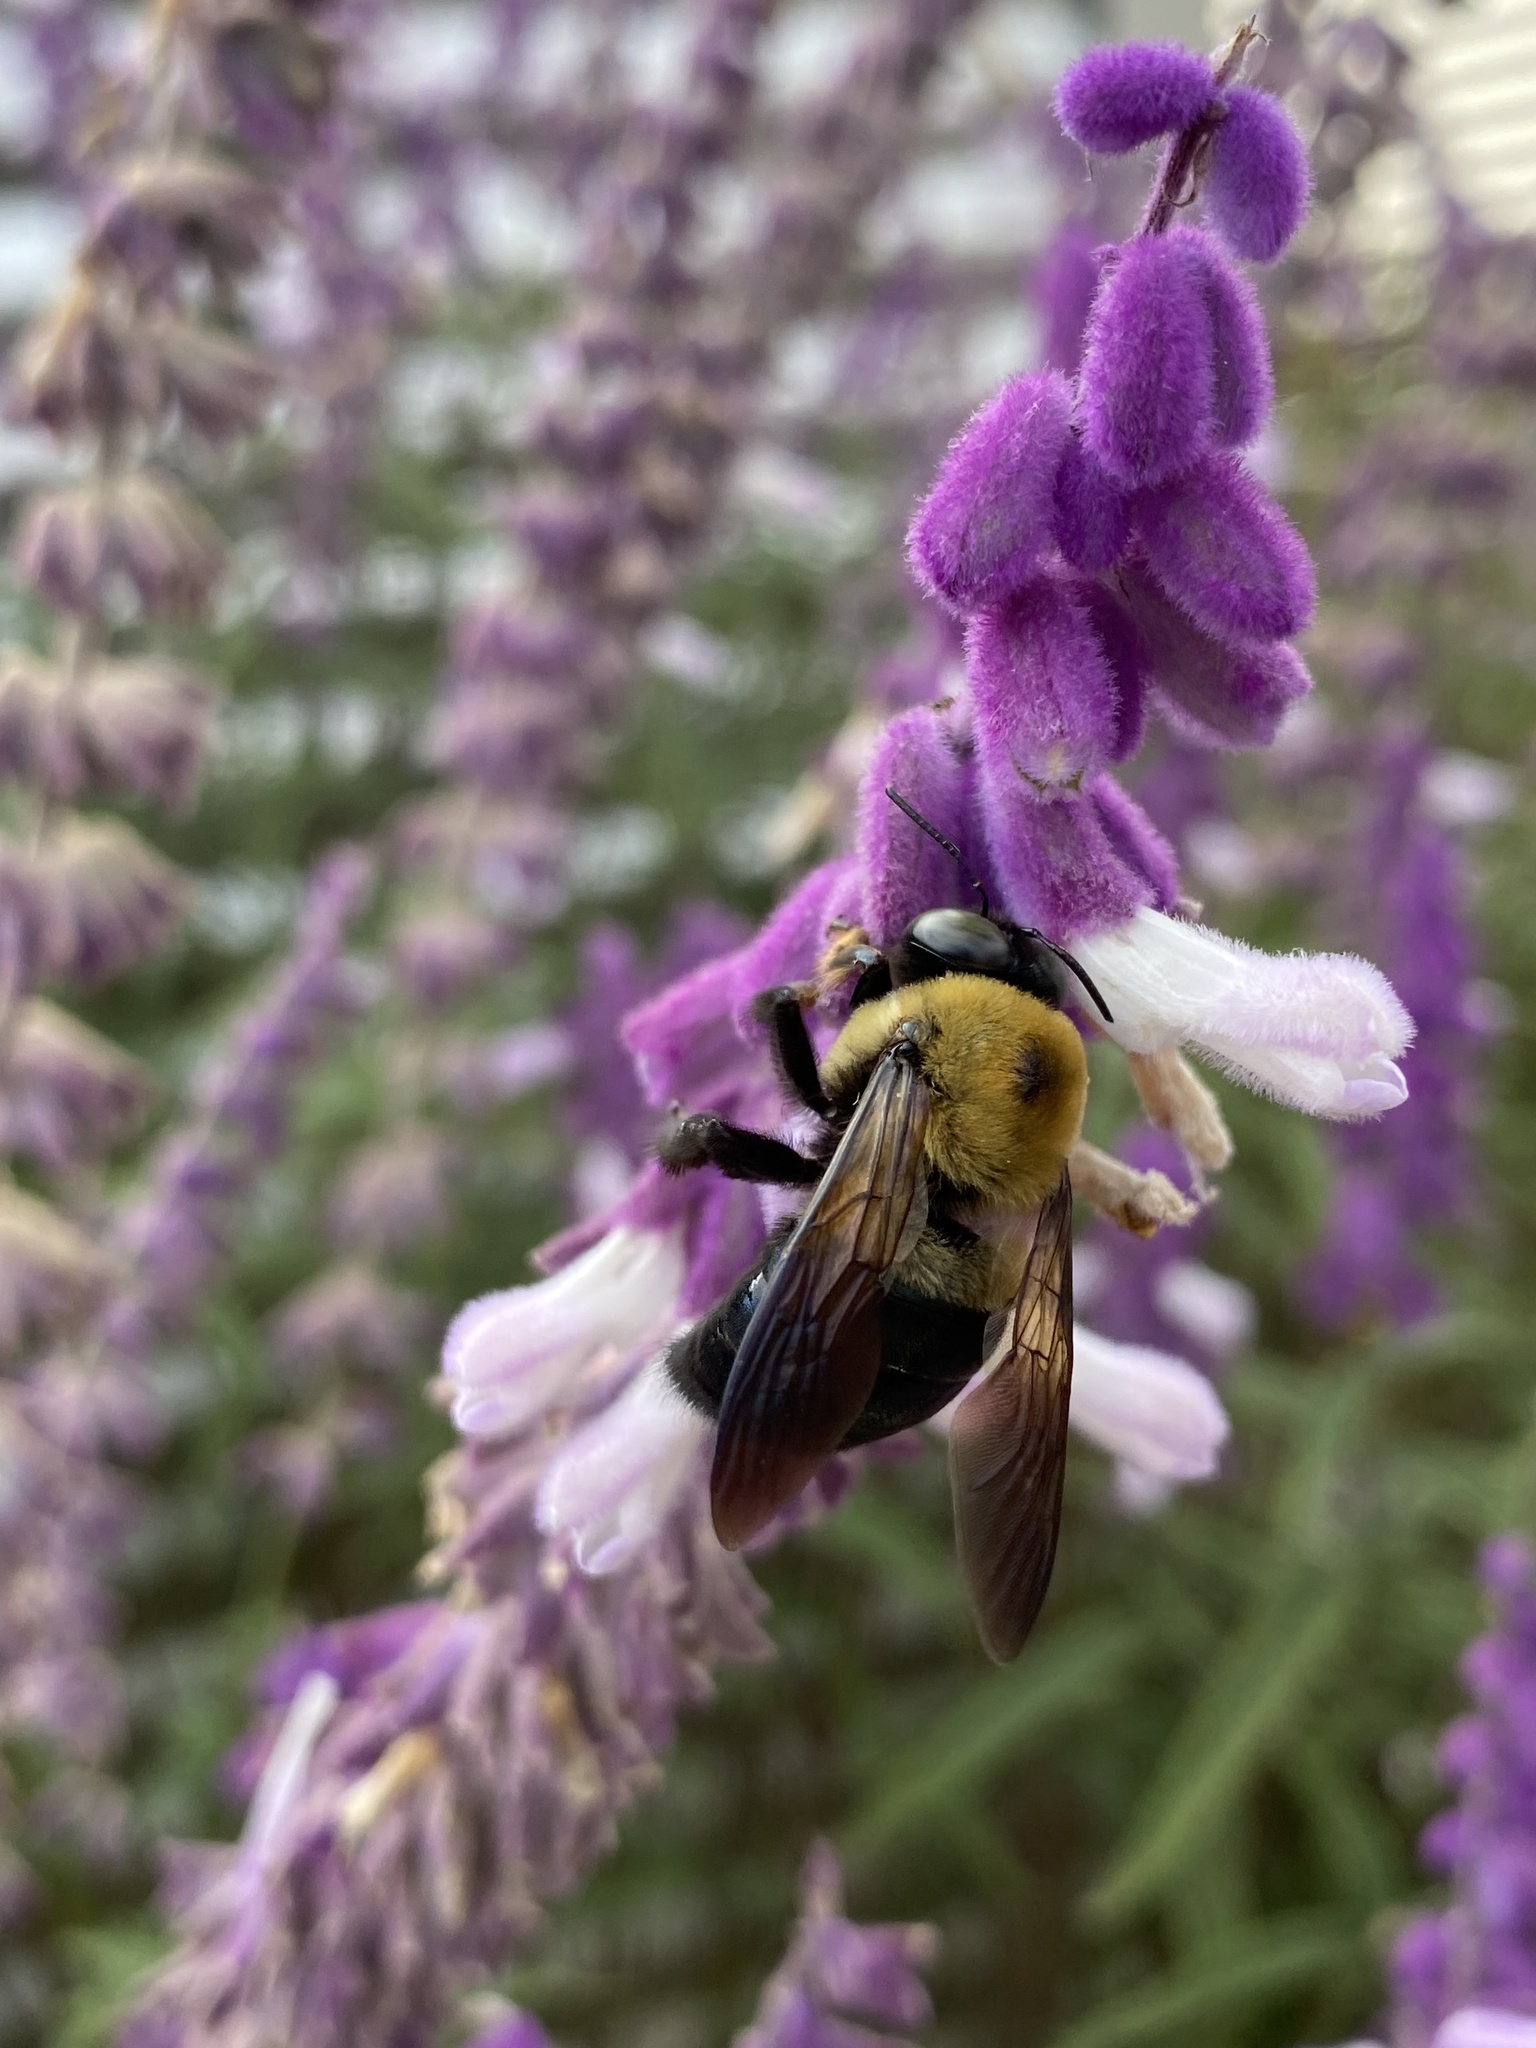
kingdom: Animalia
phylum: Arthropoda
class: Insecta
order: Hymenoptera
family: Apidae
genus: Xylocopa
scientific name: Xylocopa virginica
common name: Carpenter bee
